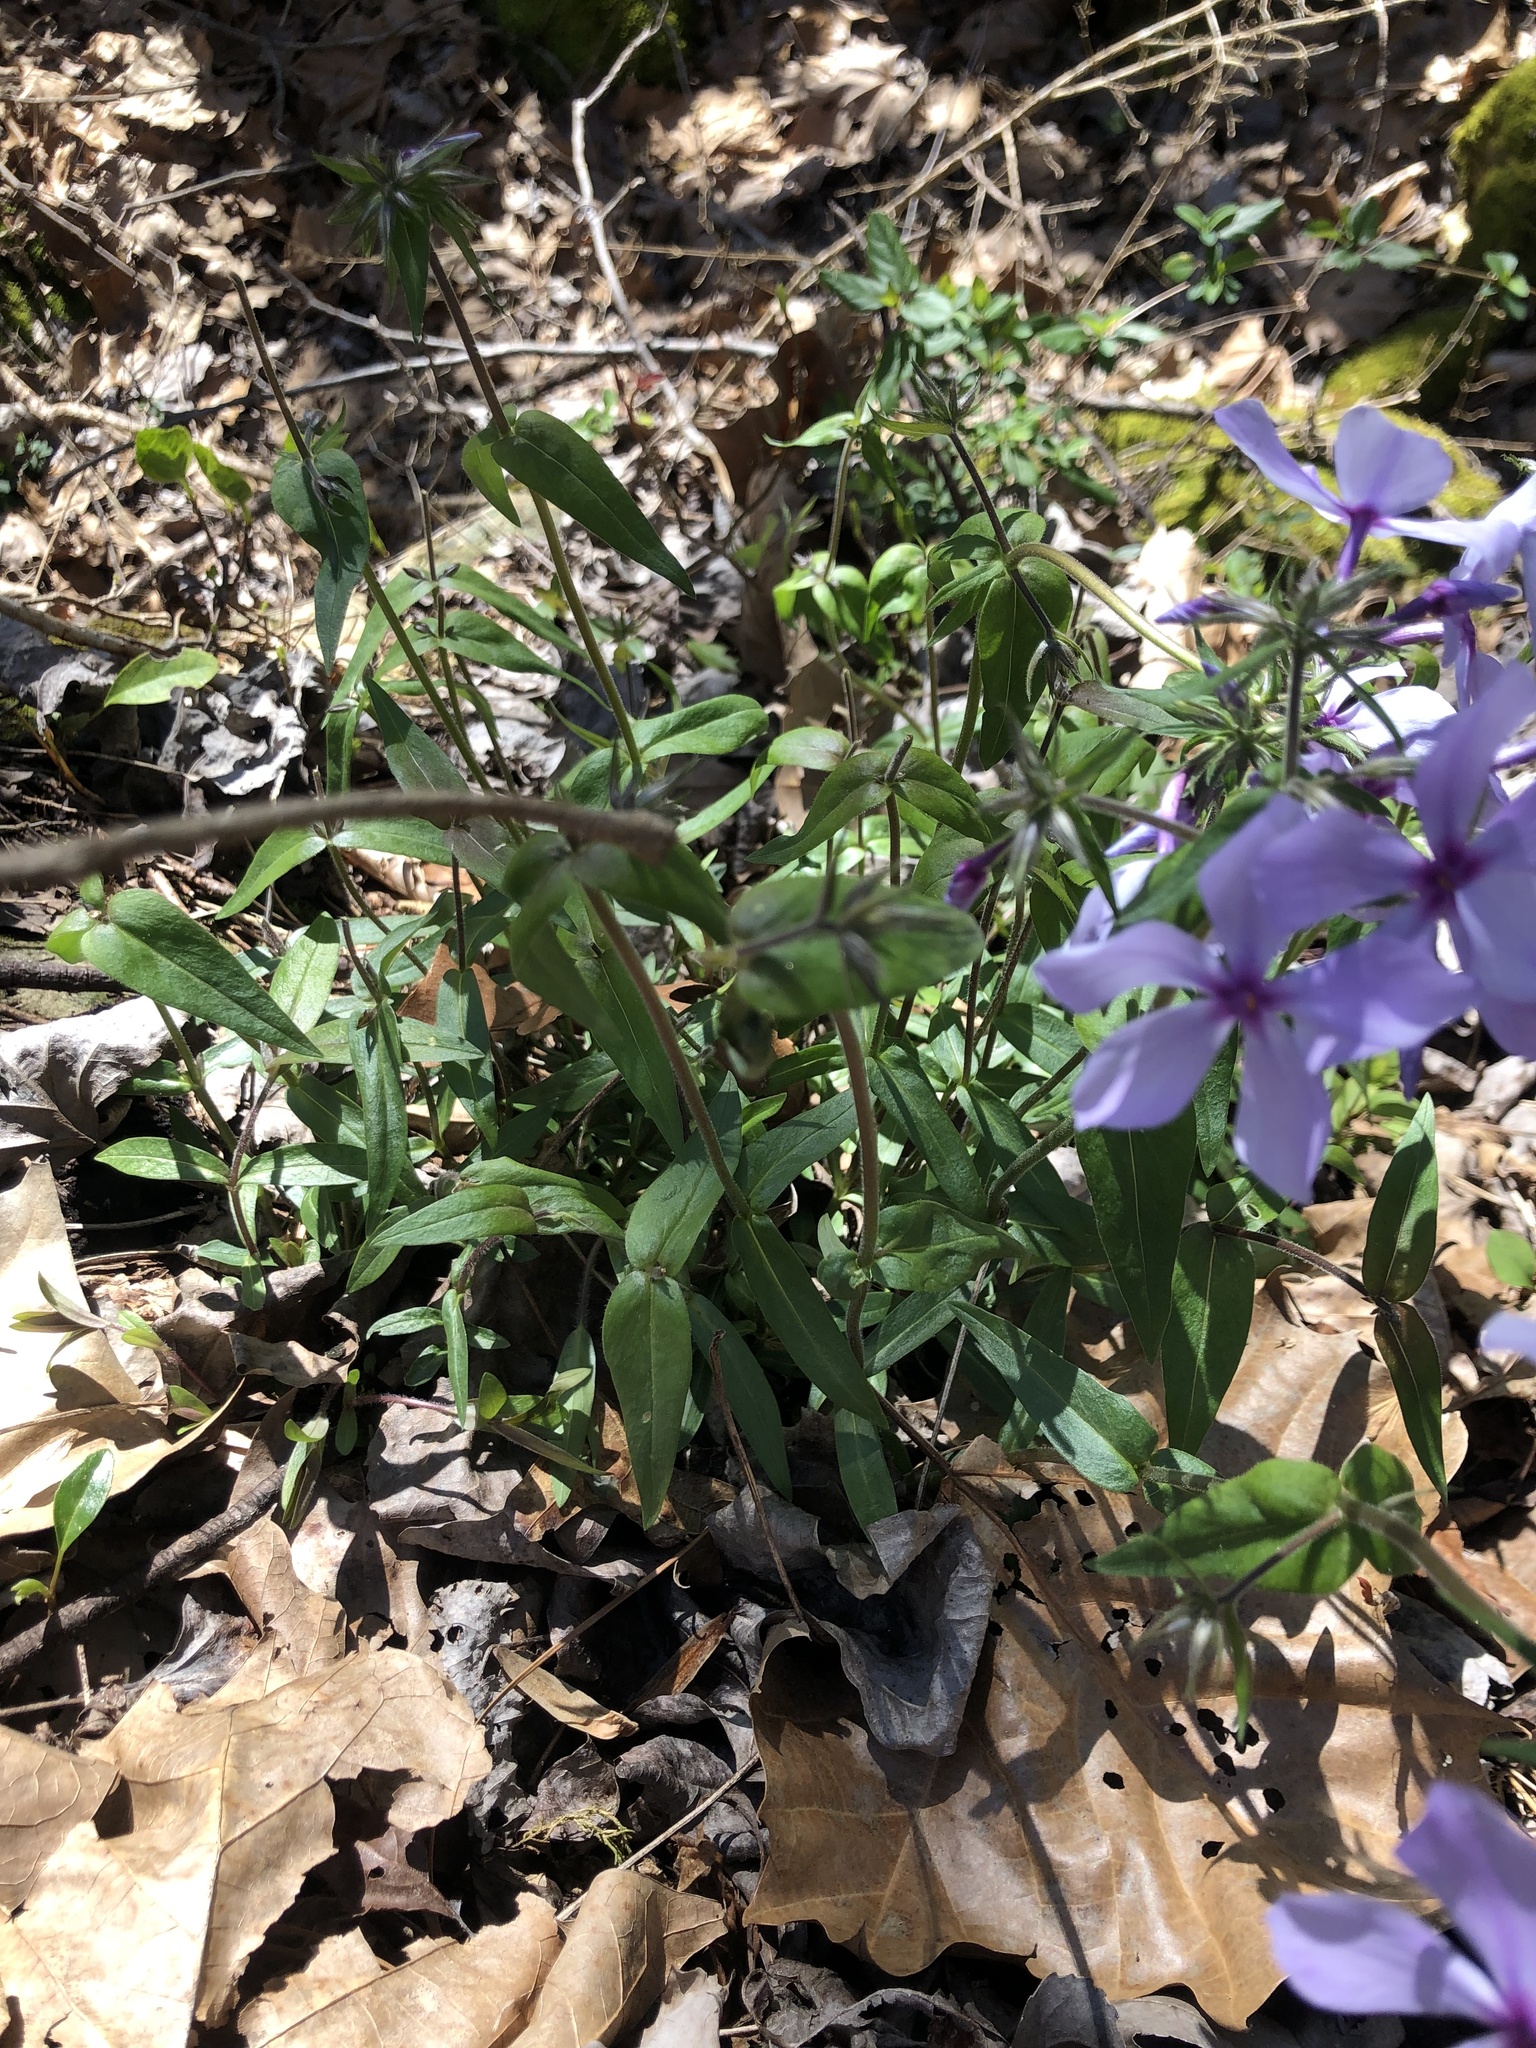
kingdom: Plantae
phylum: Tracheophyta
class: Magnoliopsida
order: Ericales
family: Polemoniaceae
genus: Phlox
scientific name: Phlox divaricata
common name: Blue phlox
